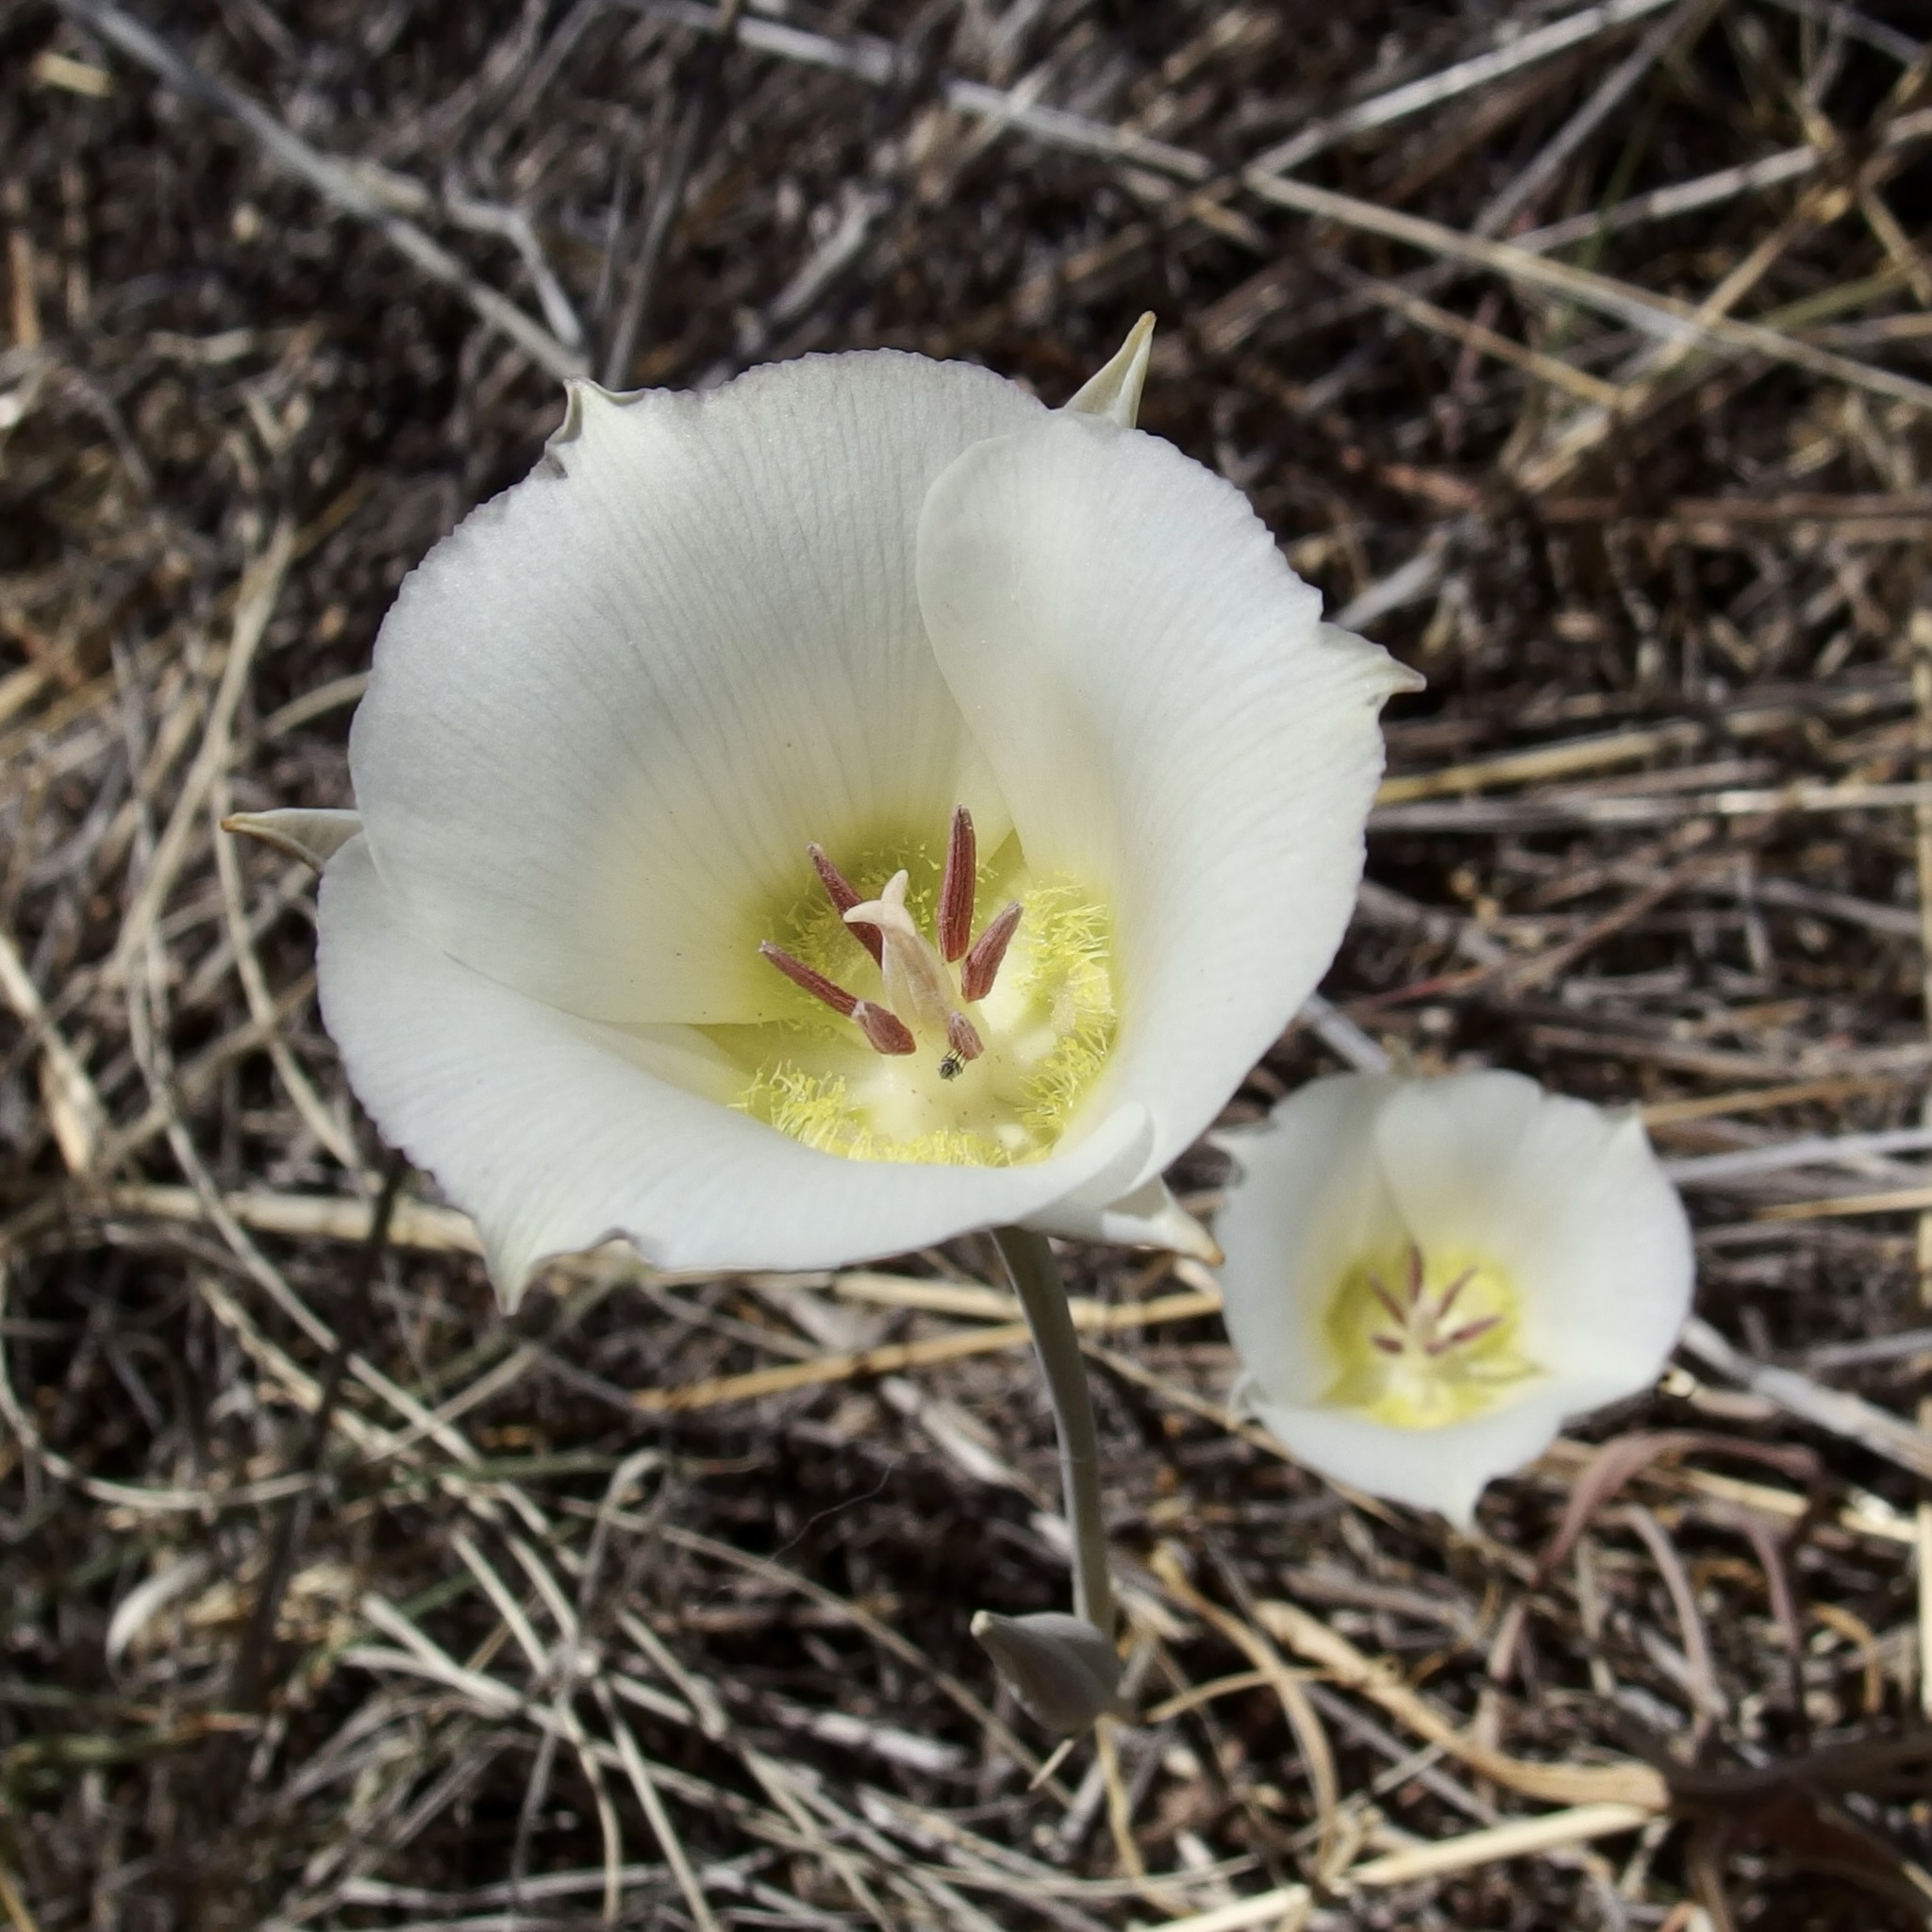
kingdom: Plantae
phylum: Tracheophyta
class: Liliopsida
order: Liliales
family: Liliaceae
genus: Calochortus
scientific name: Calochortus ambiguus
